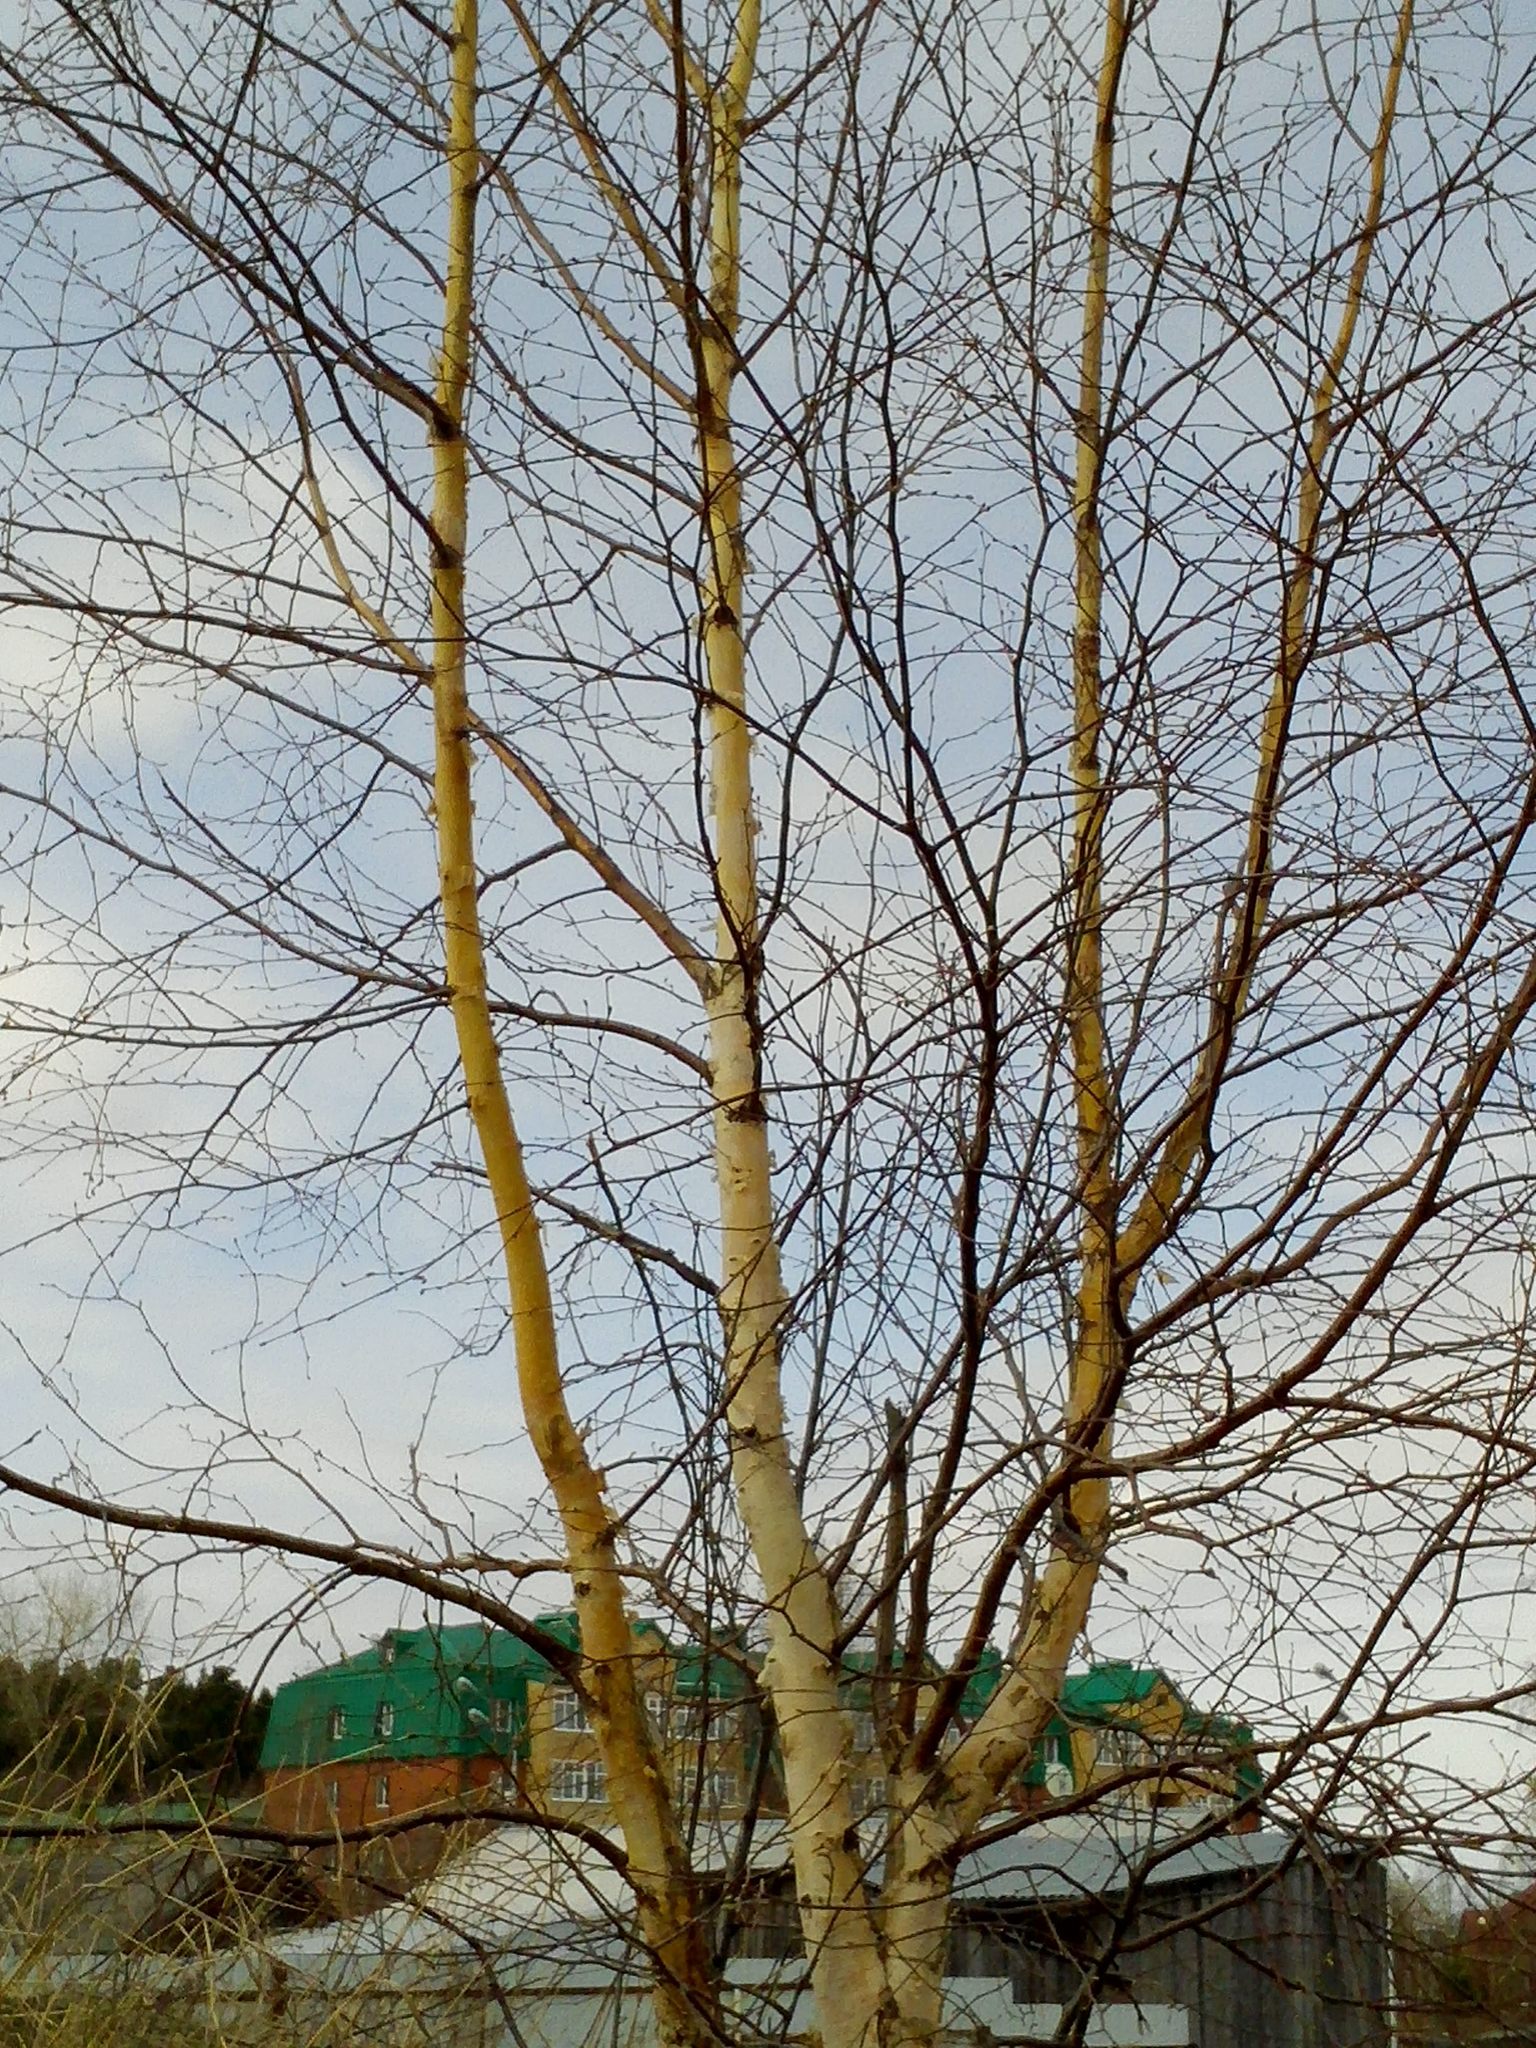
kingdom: Plantae
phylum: Tracheophyta
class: Magnoliopsida
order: Fagales
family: Betulaceae
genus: Betula
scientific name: Betula pubescens
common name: Downy birch
